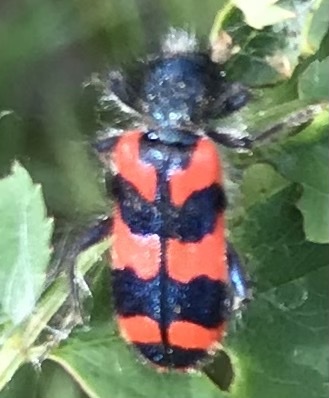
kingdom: Animalia
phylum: Arthropoda
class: Insecta
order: Coleoptera
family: Cleridae
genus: Trichodes
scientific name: Trichodes alvearius
